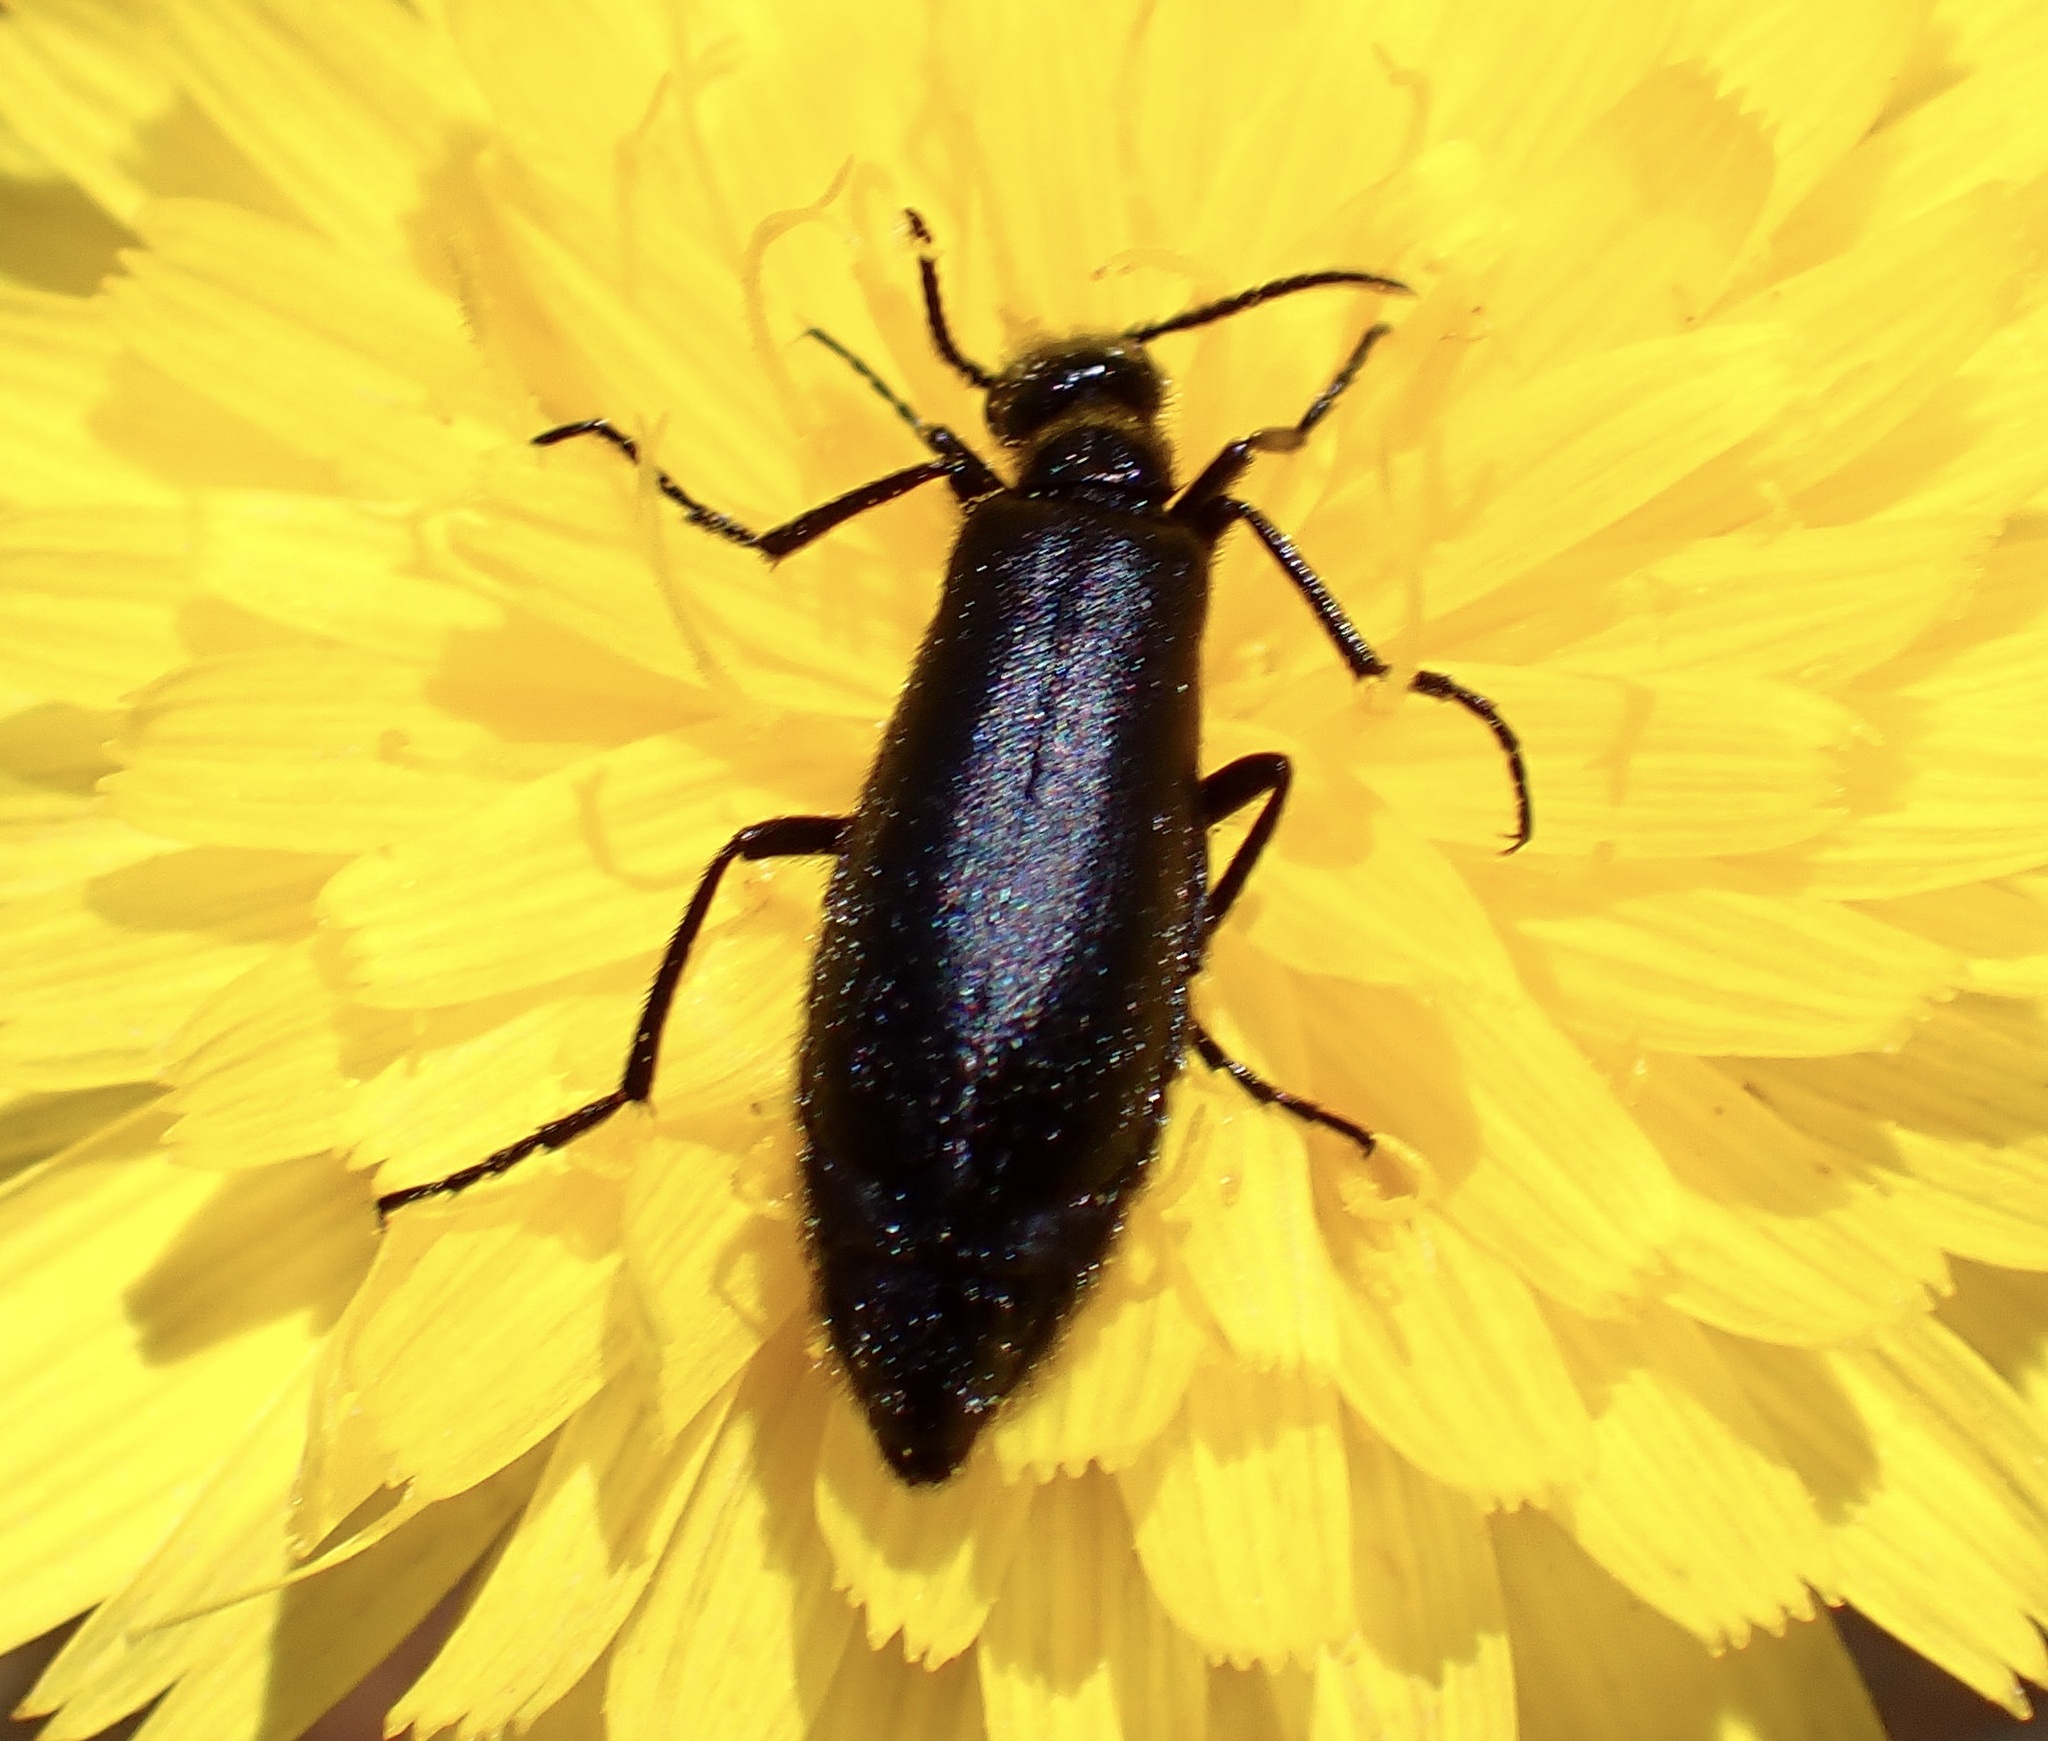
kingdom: Animalia
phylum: Arthropoda
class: Insecta
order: Coleoptera
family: Meloidae
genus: Epicauta
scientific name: Epicauta puncticollis
